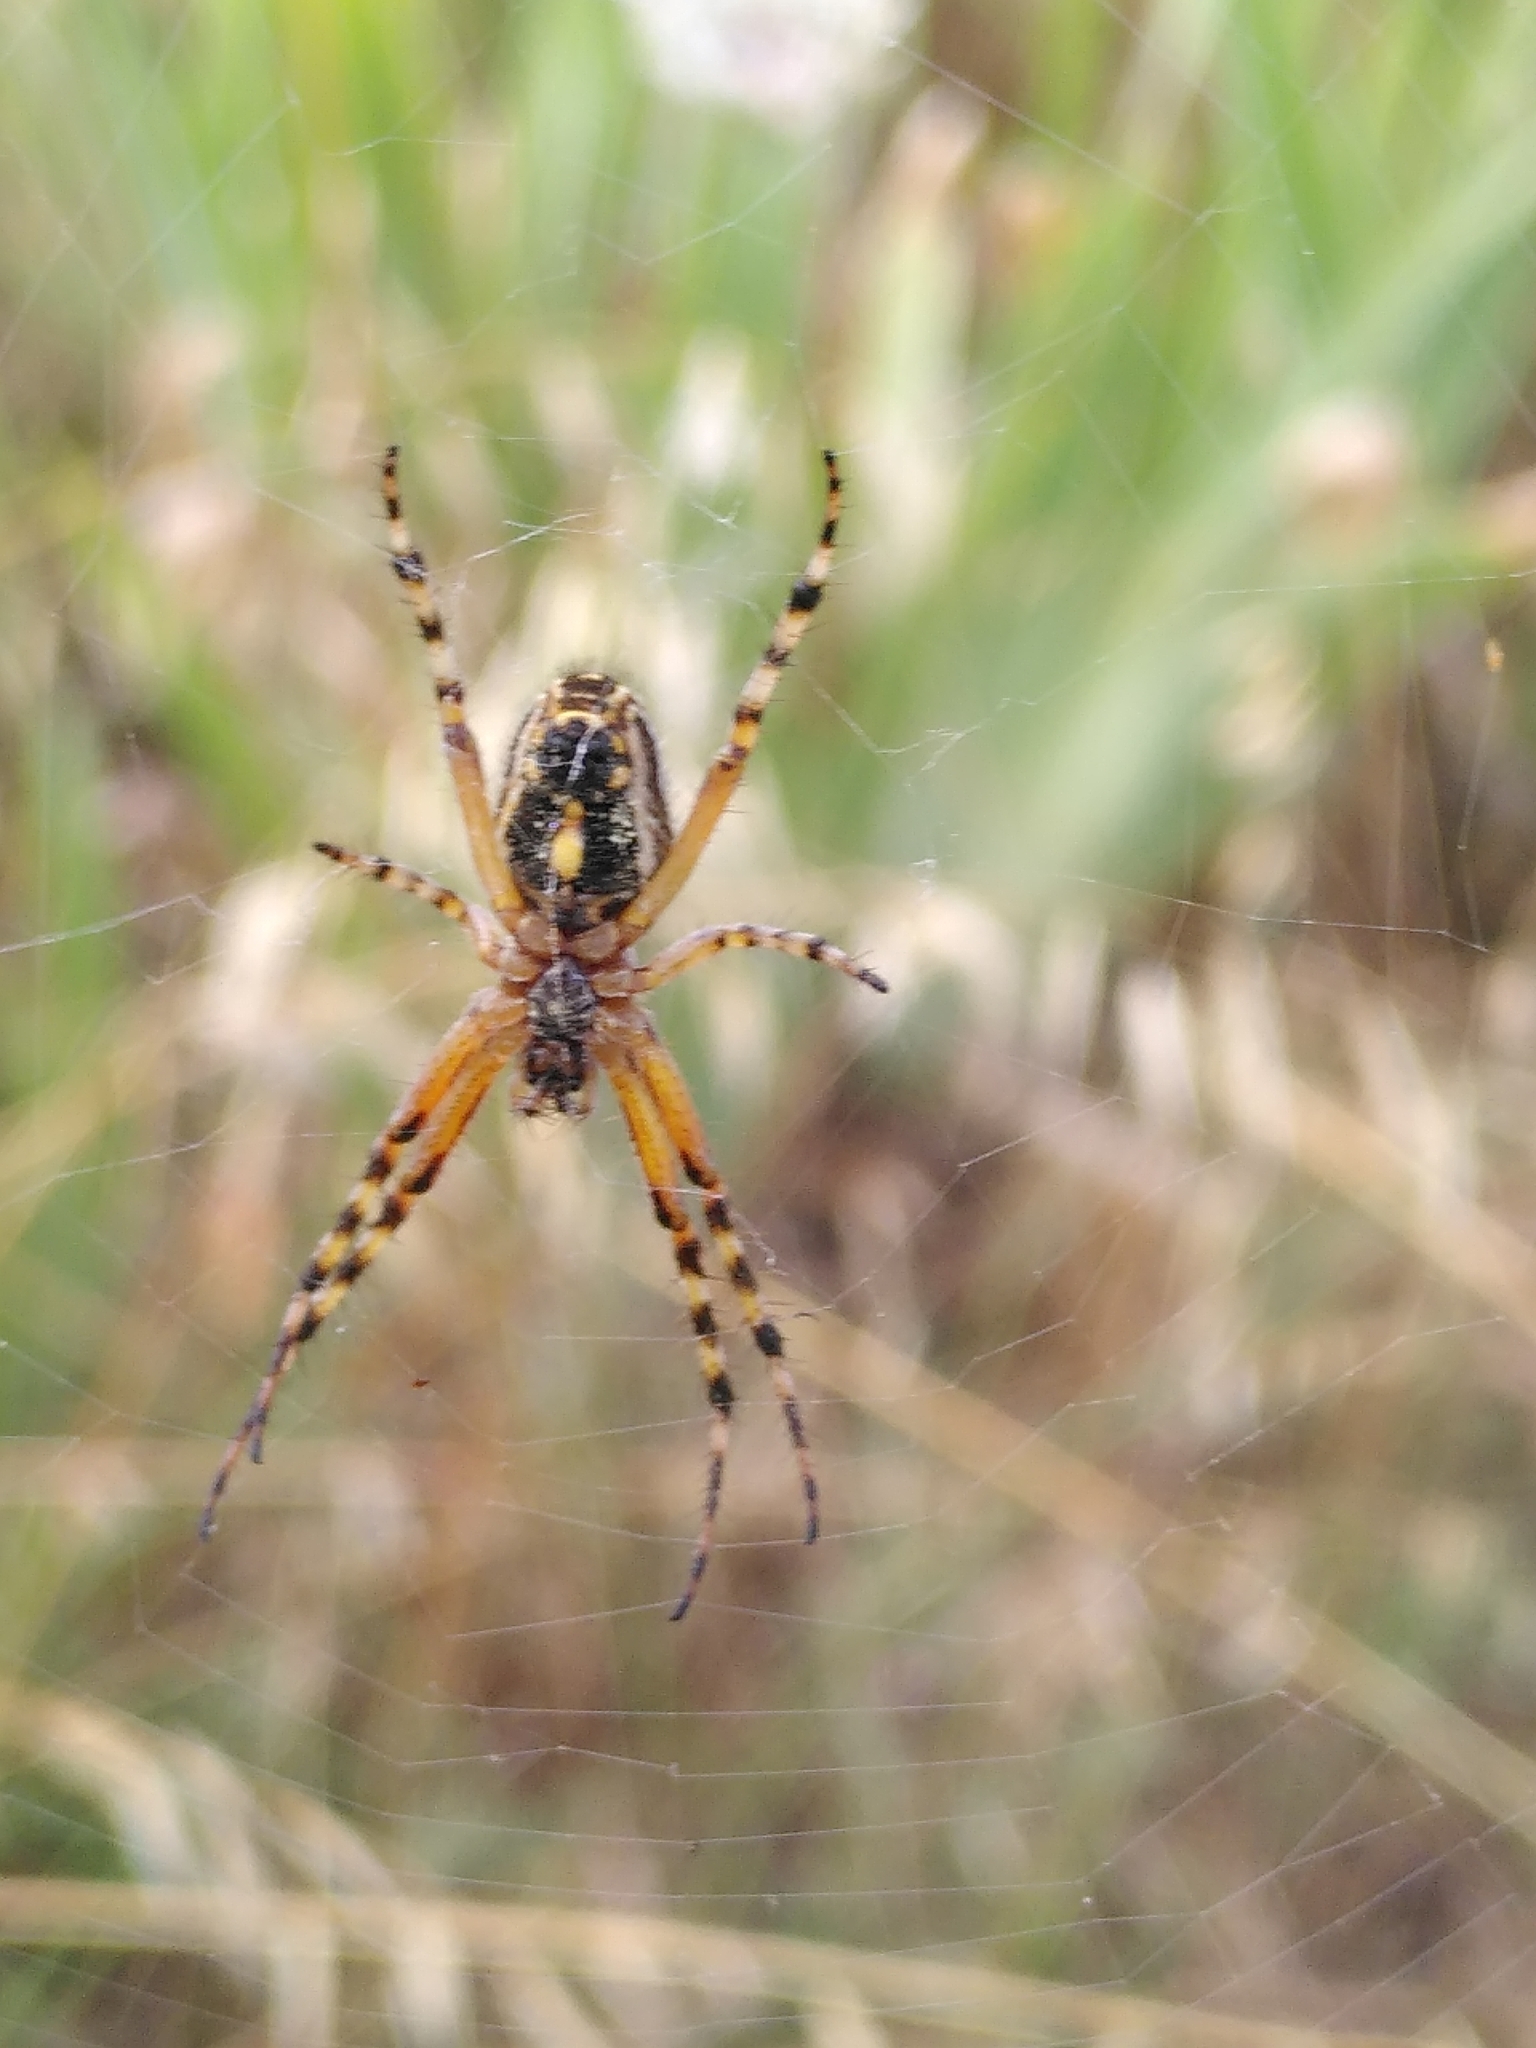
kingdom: Animalia
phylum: Arthropoda
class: Arachnida
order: Araneae
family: Araneidae
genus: Aculepeira
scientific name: Aculepeira armida
